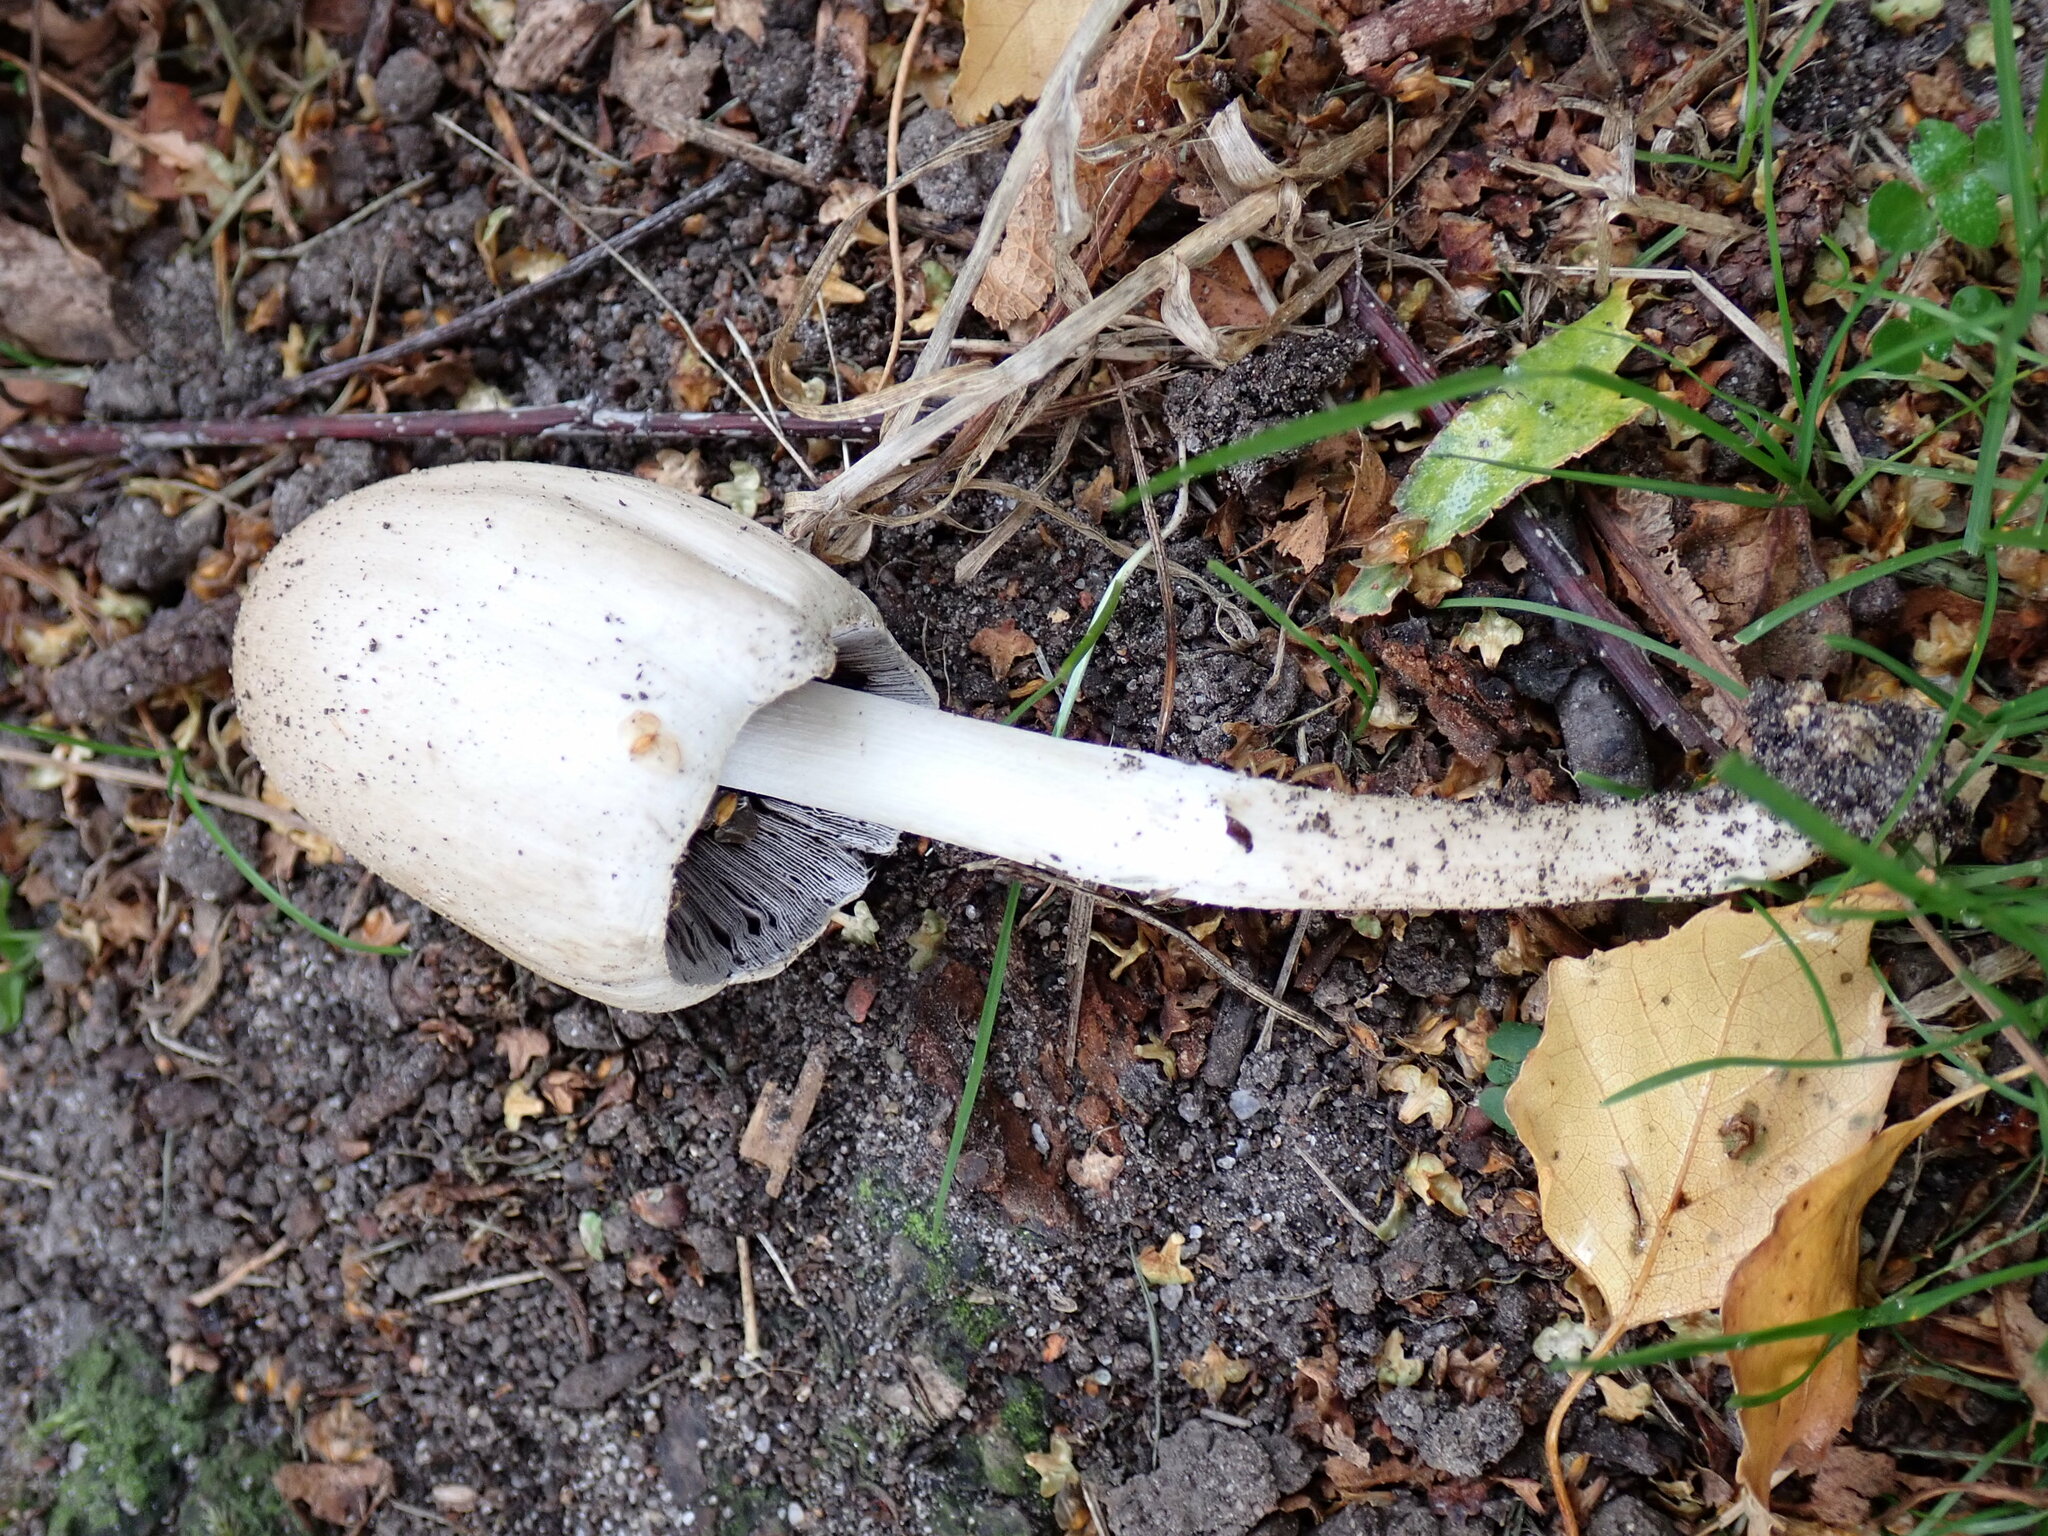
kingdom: Fungi
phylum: Basidiomycota
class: Agaricomycetes
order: Agaricales
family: Psathyrellaceae
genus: Coprinopsis
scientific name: Coprinopsis atramentaria
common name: Common ink-cap
